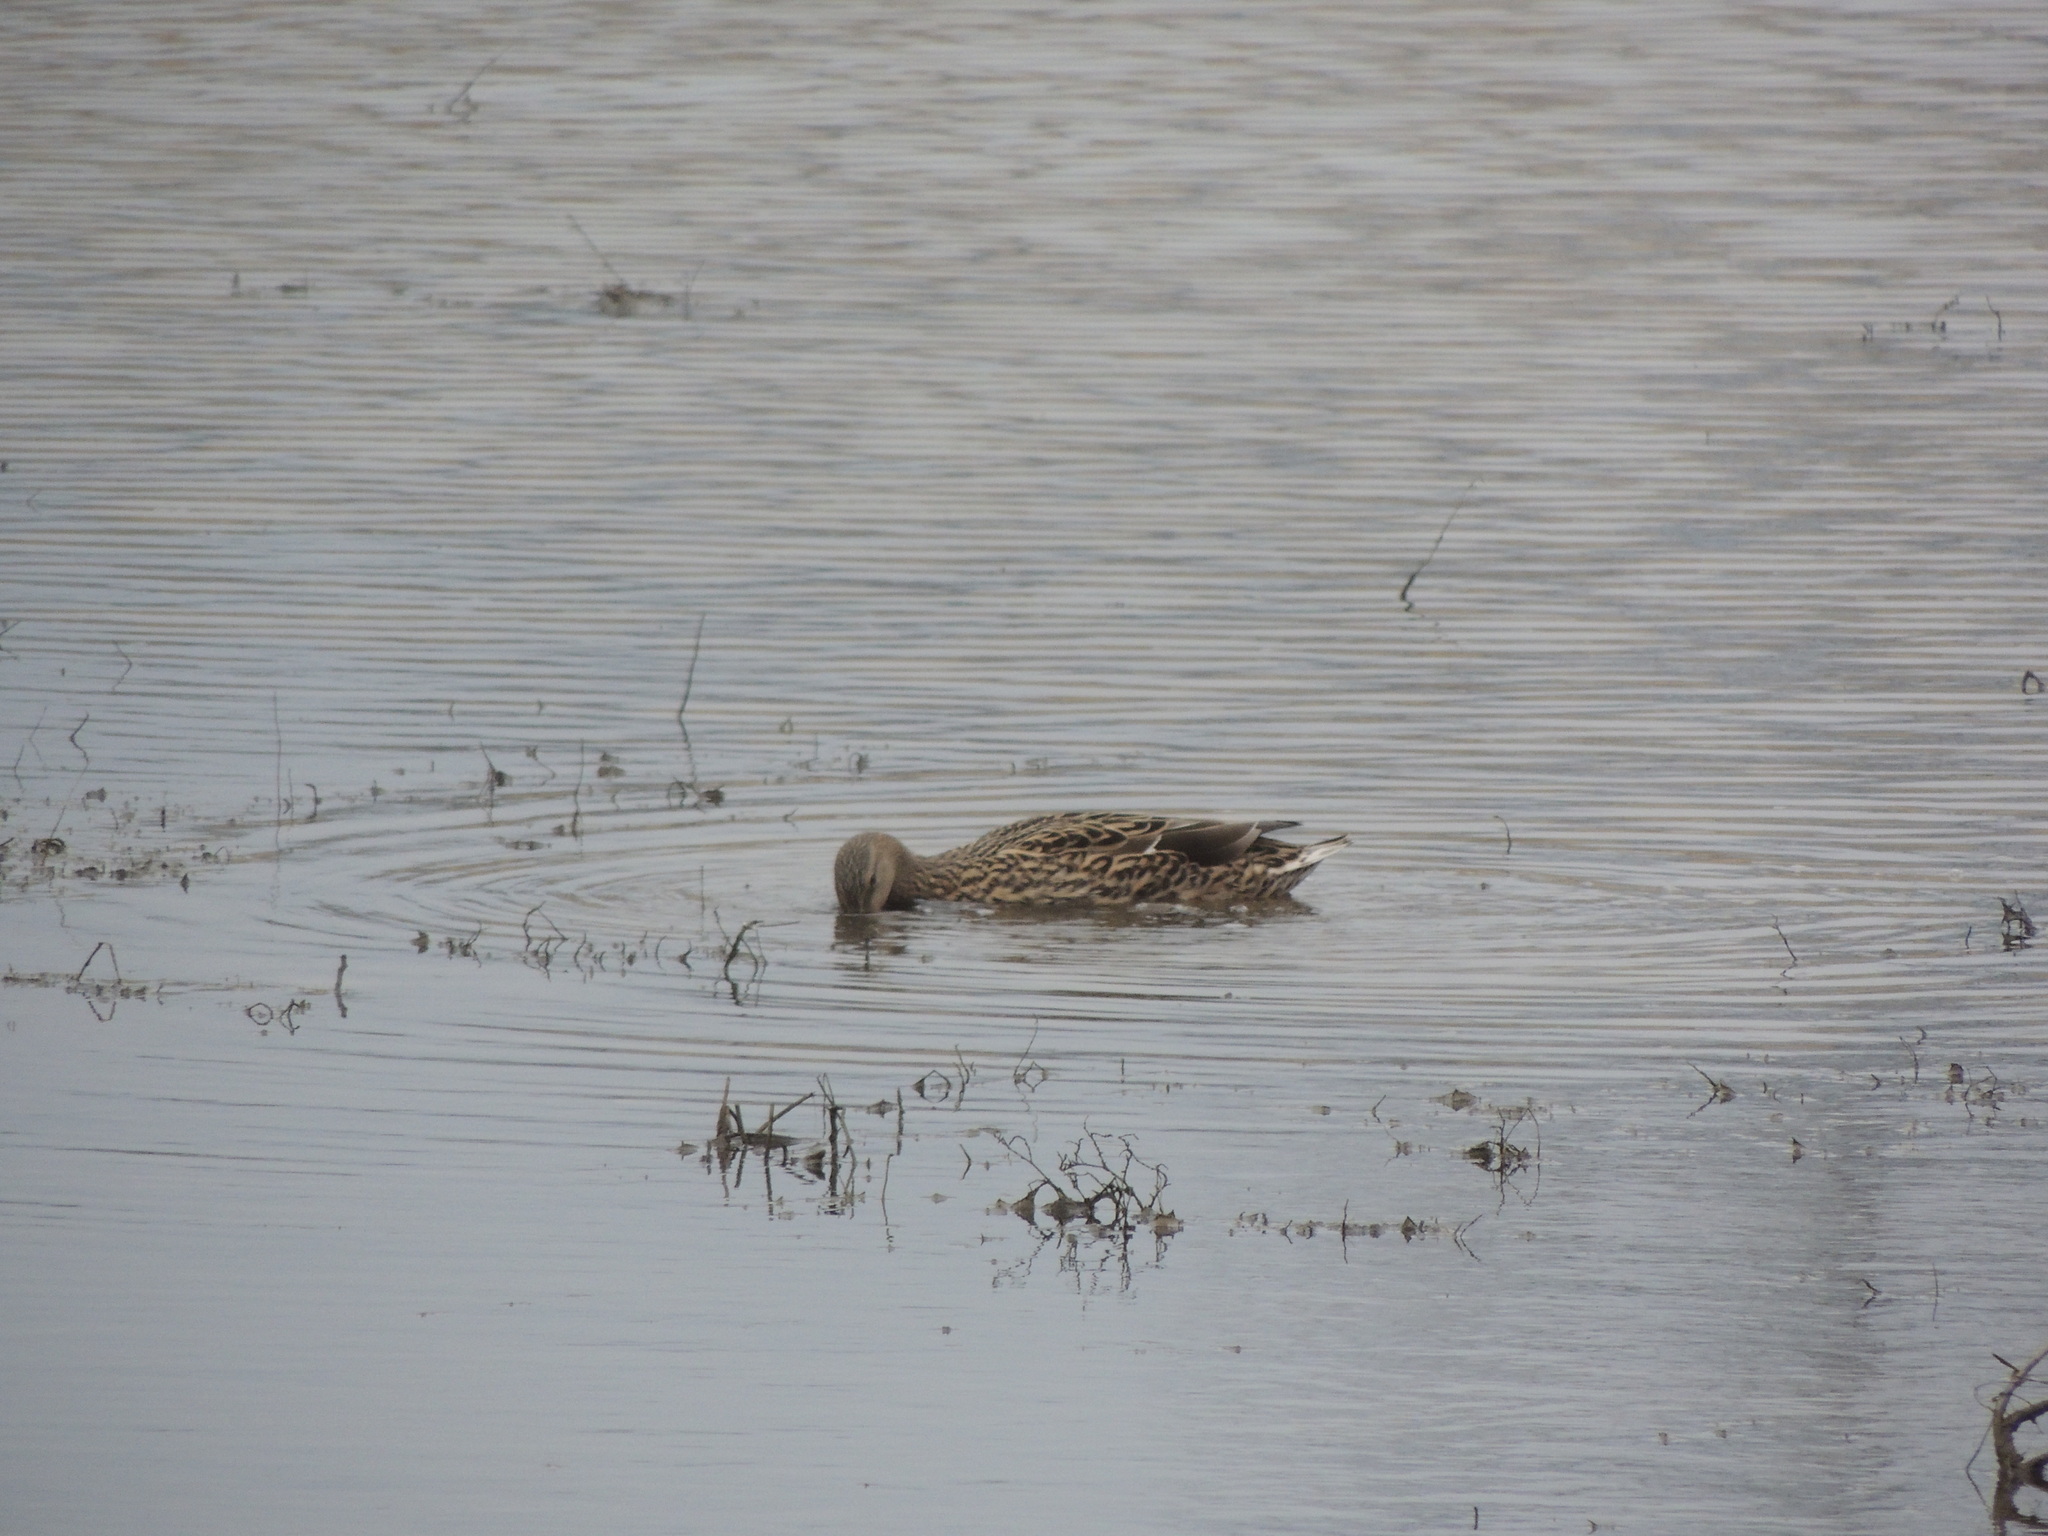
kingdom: Animalia
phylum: Chordata
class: Aves
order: Anseriformes
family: Anatidae
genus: Anas
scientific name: Anas platyrhynchos
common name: Mallard
